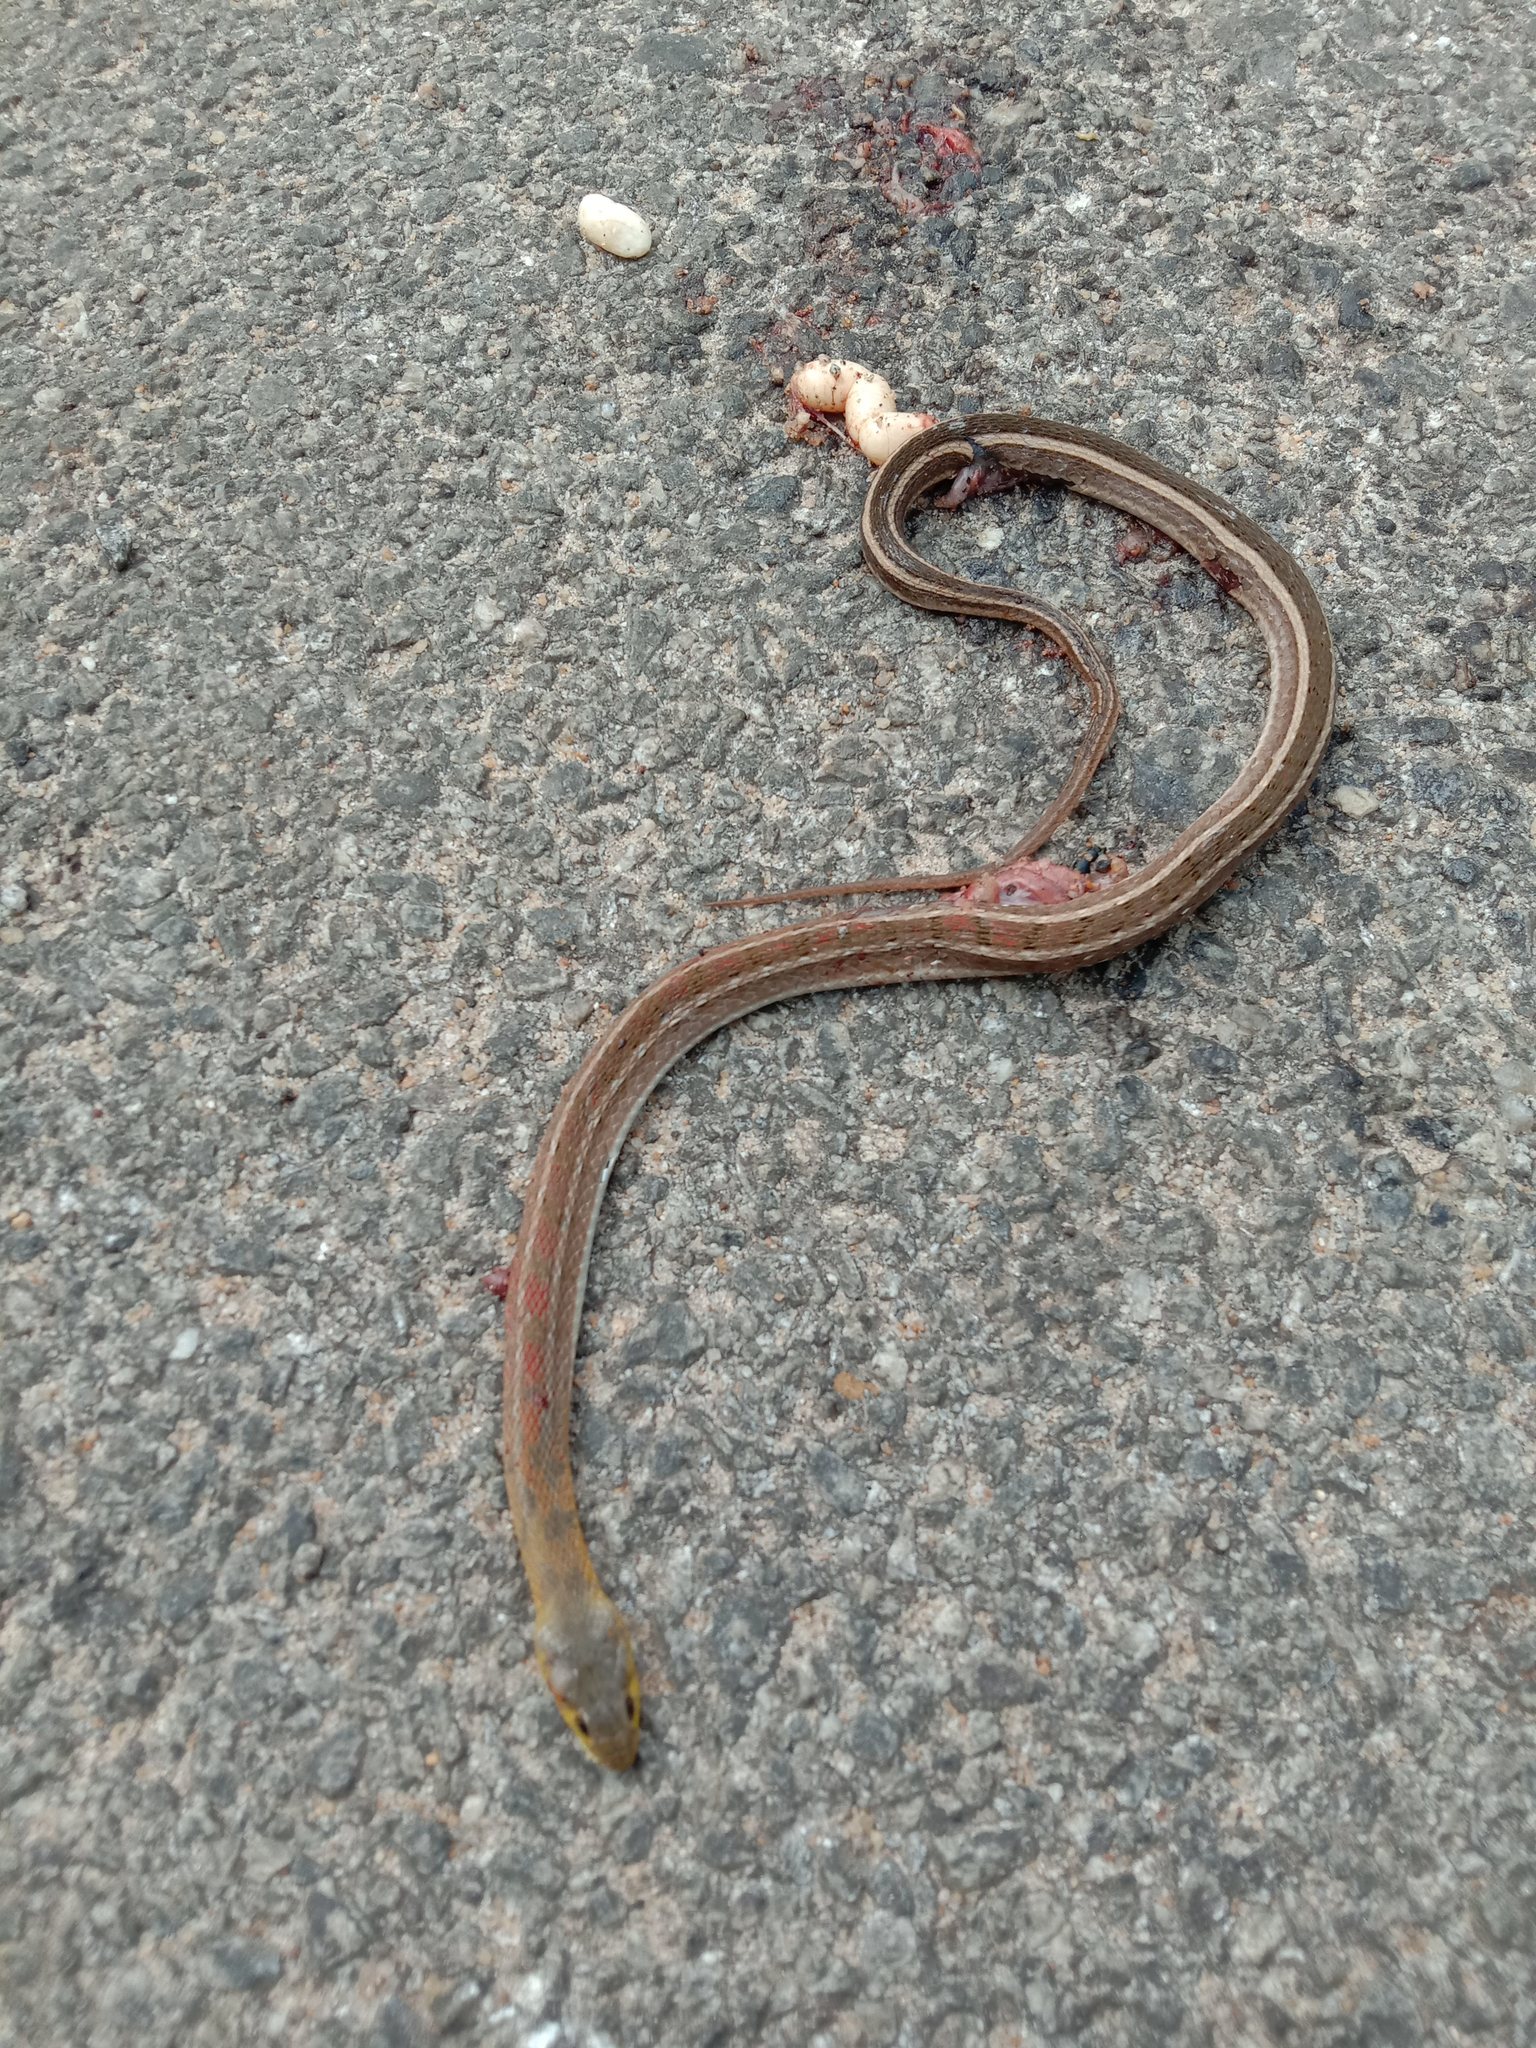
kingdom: Animalia
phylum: Chordata
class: Squamata
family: Colubridae
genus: Amphiesma
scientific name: Amphiesma stolatum
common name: Buff striped keelback
